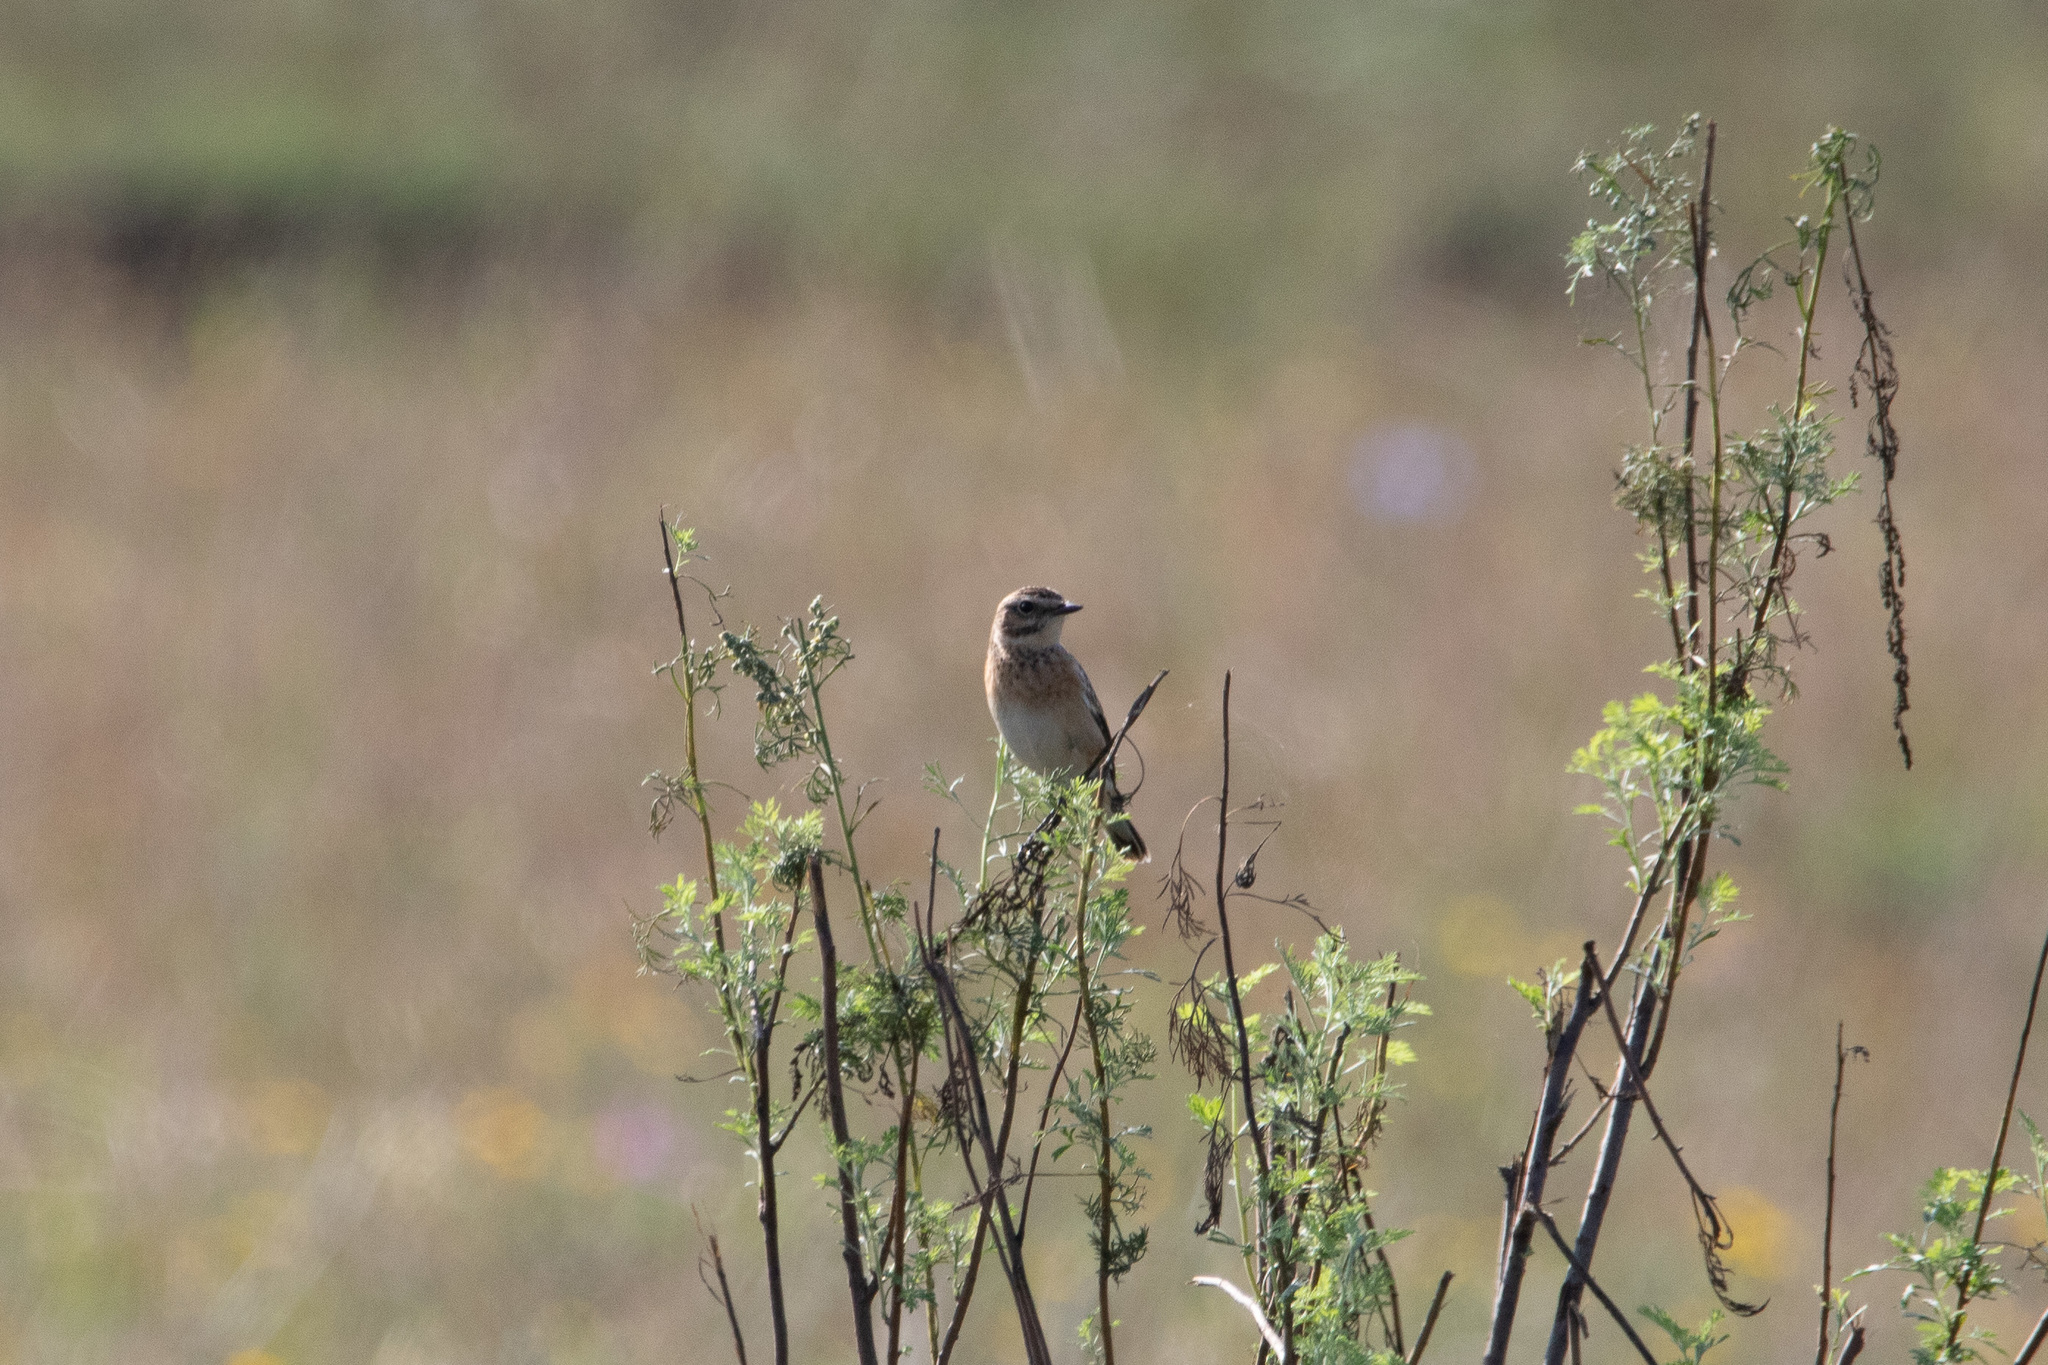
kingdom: Animalia
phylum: Chordata
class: Aves
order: Passeriformes
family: Muscicapidae
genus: Saxicola
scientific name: Saxicola rubetra
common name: Whinchat
